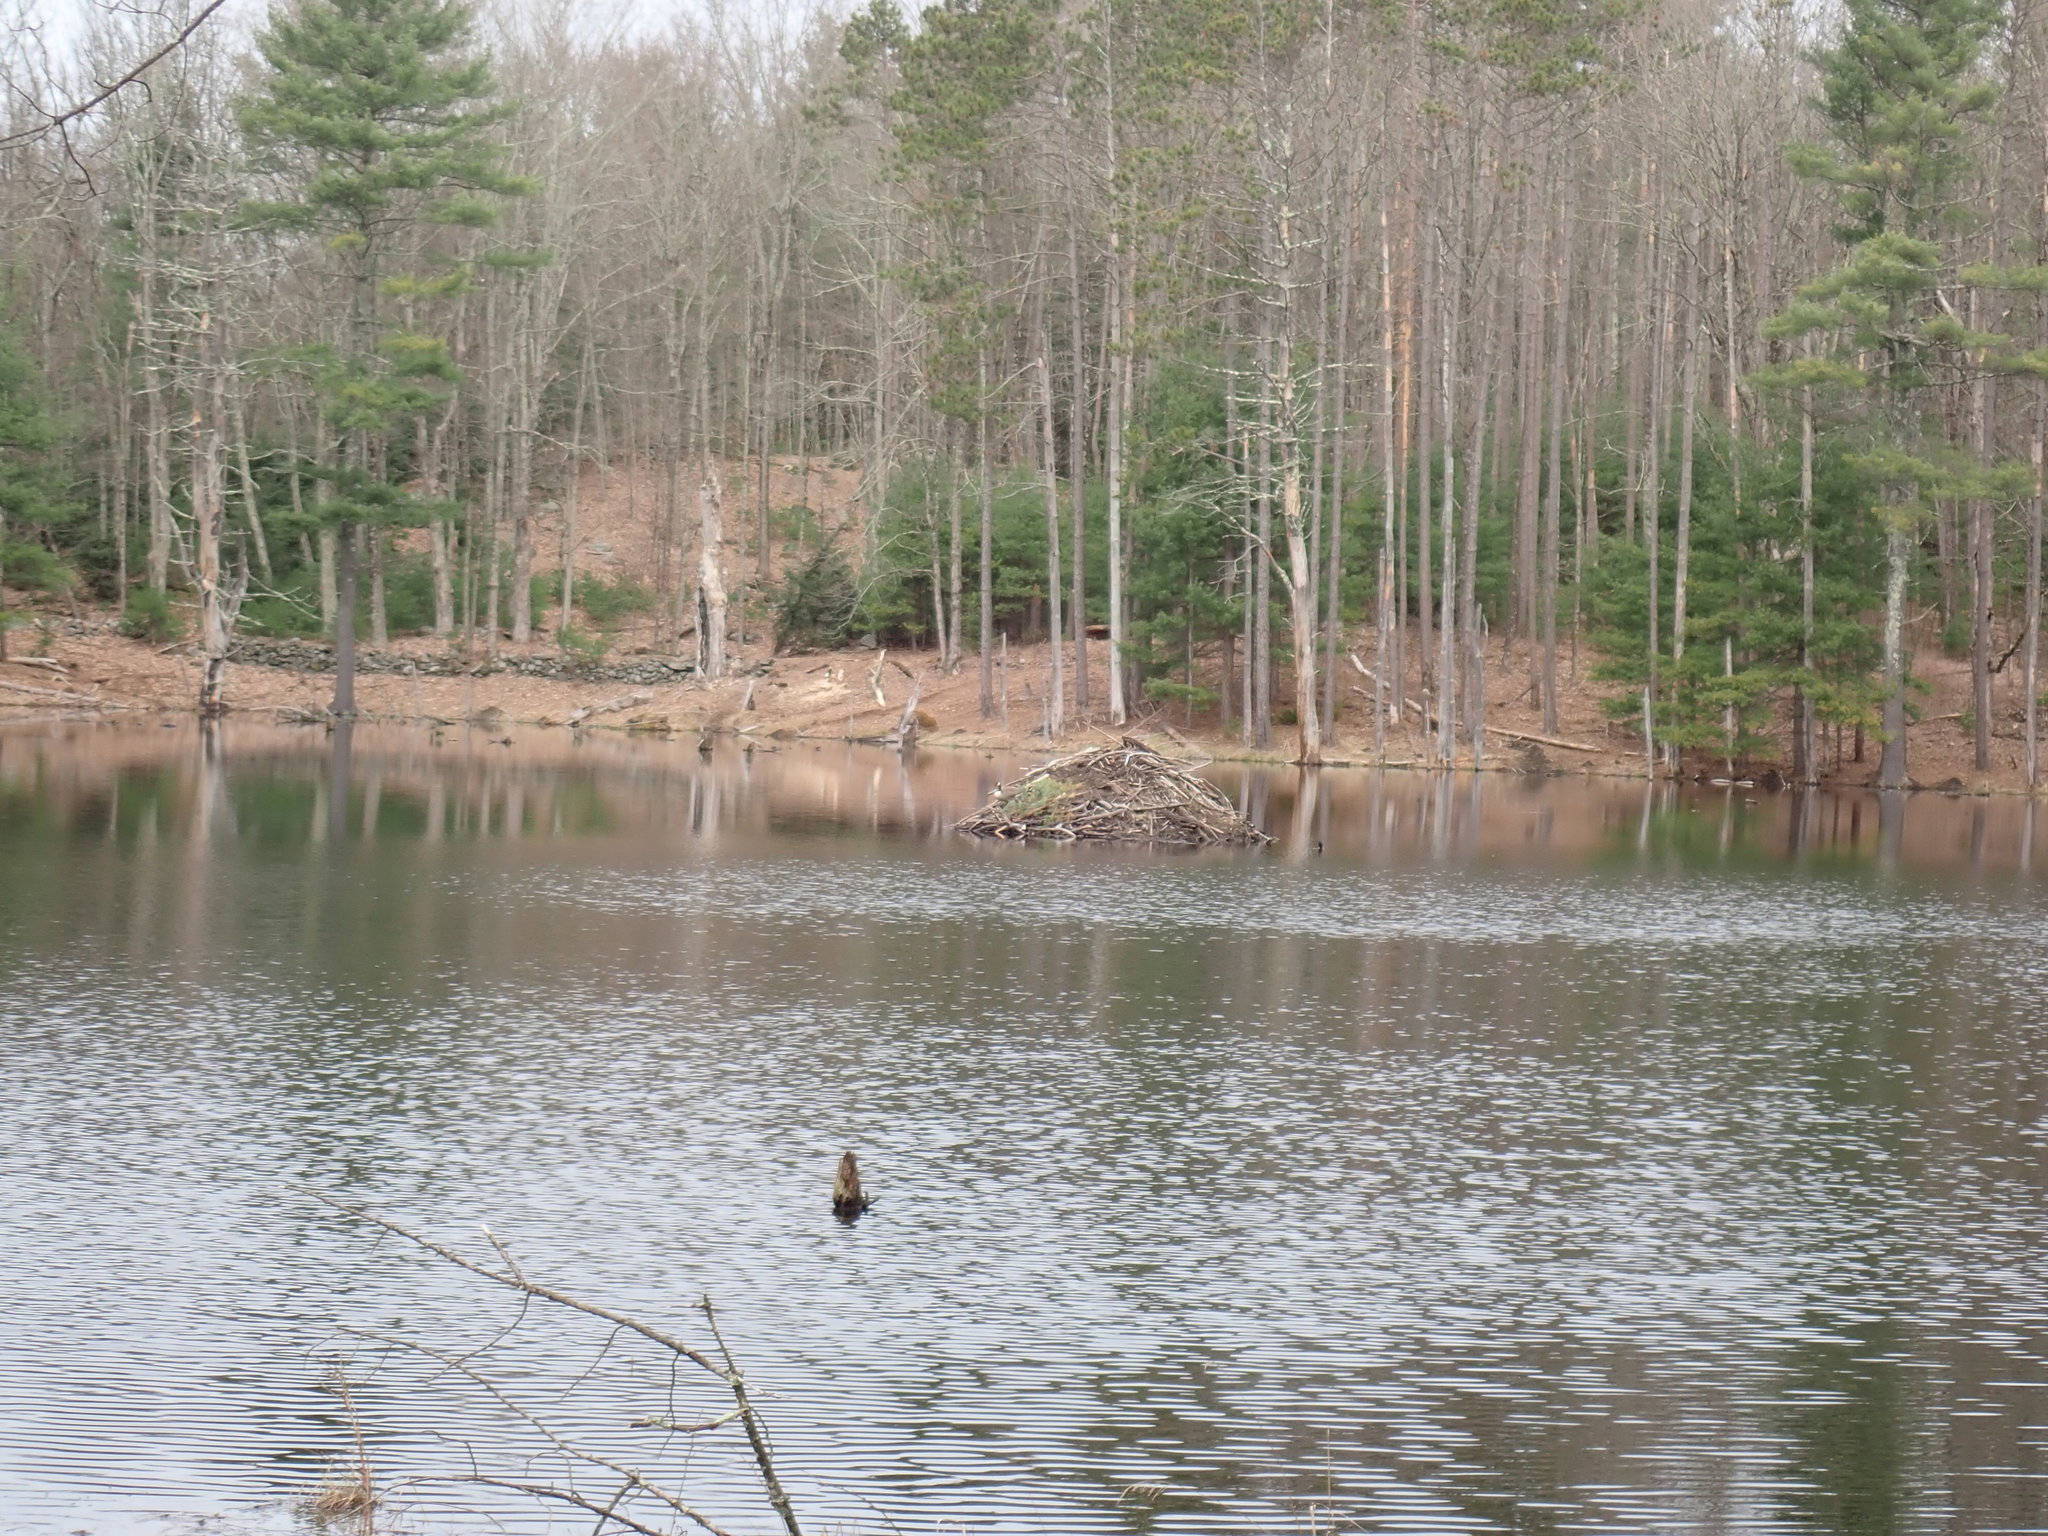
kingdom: Animalia
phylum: Chordata
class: Mammalia
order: Rodentia
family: Castoridae
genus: Castor
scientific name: Castor canadensis
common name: American beaver
